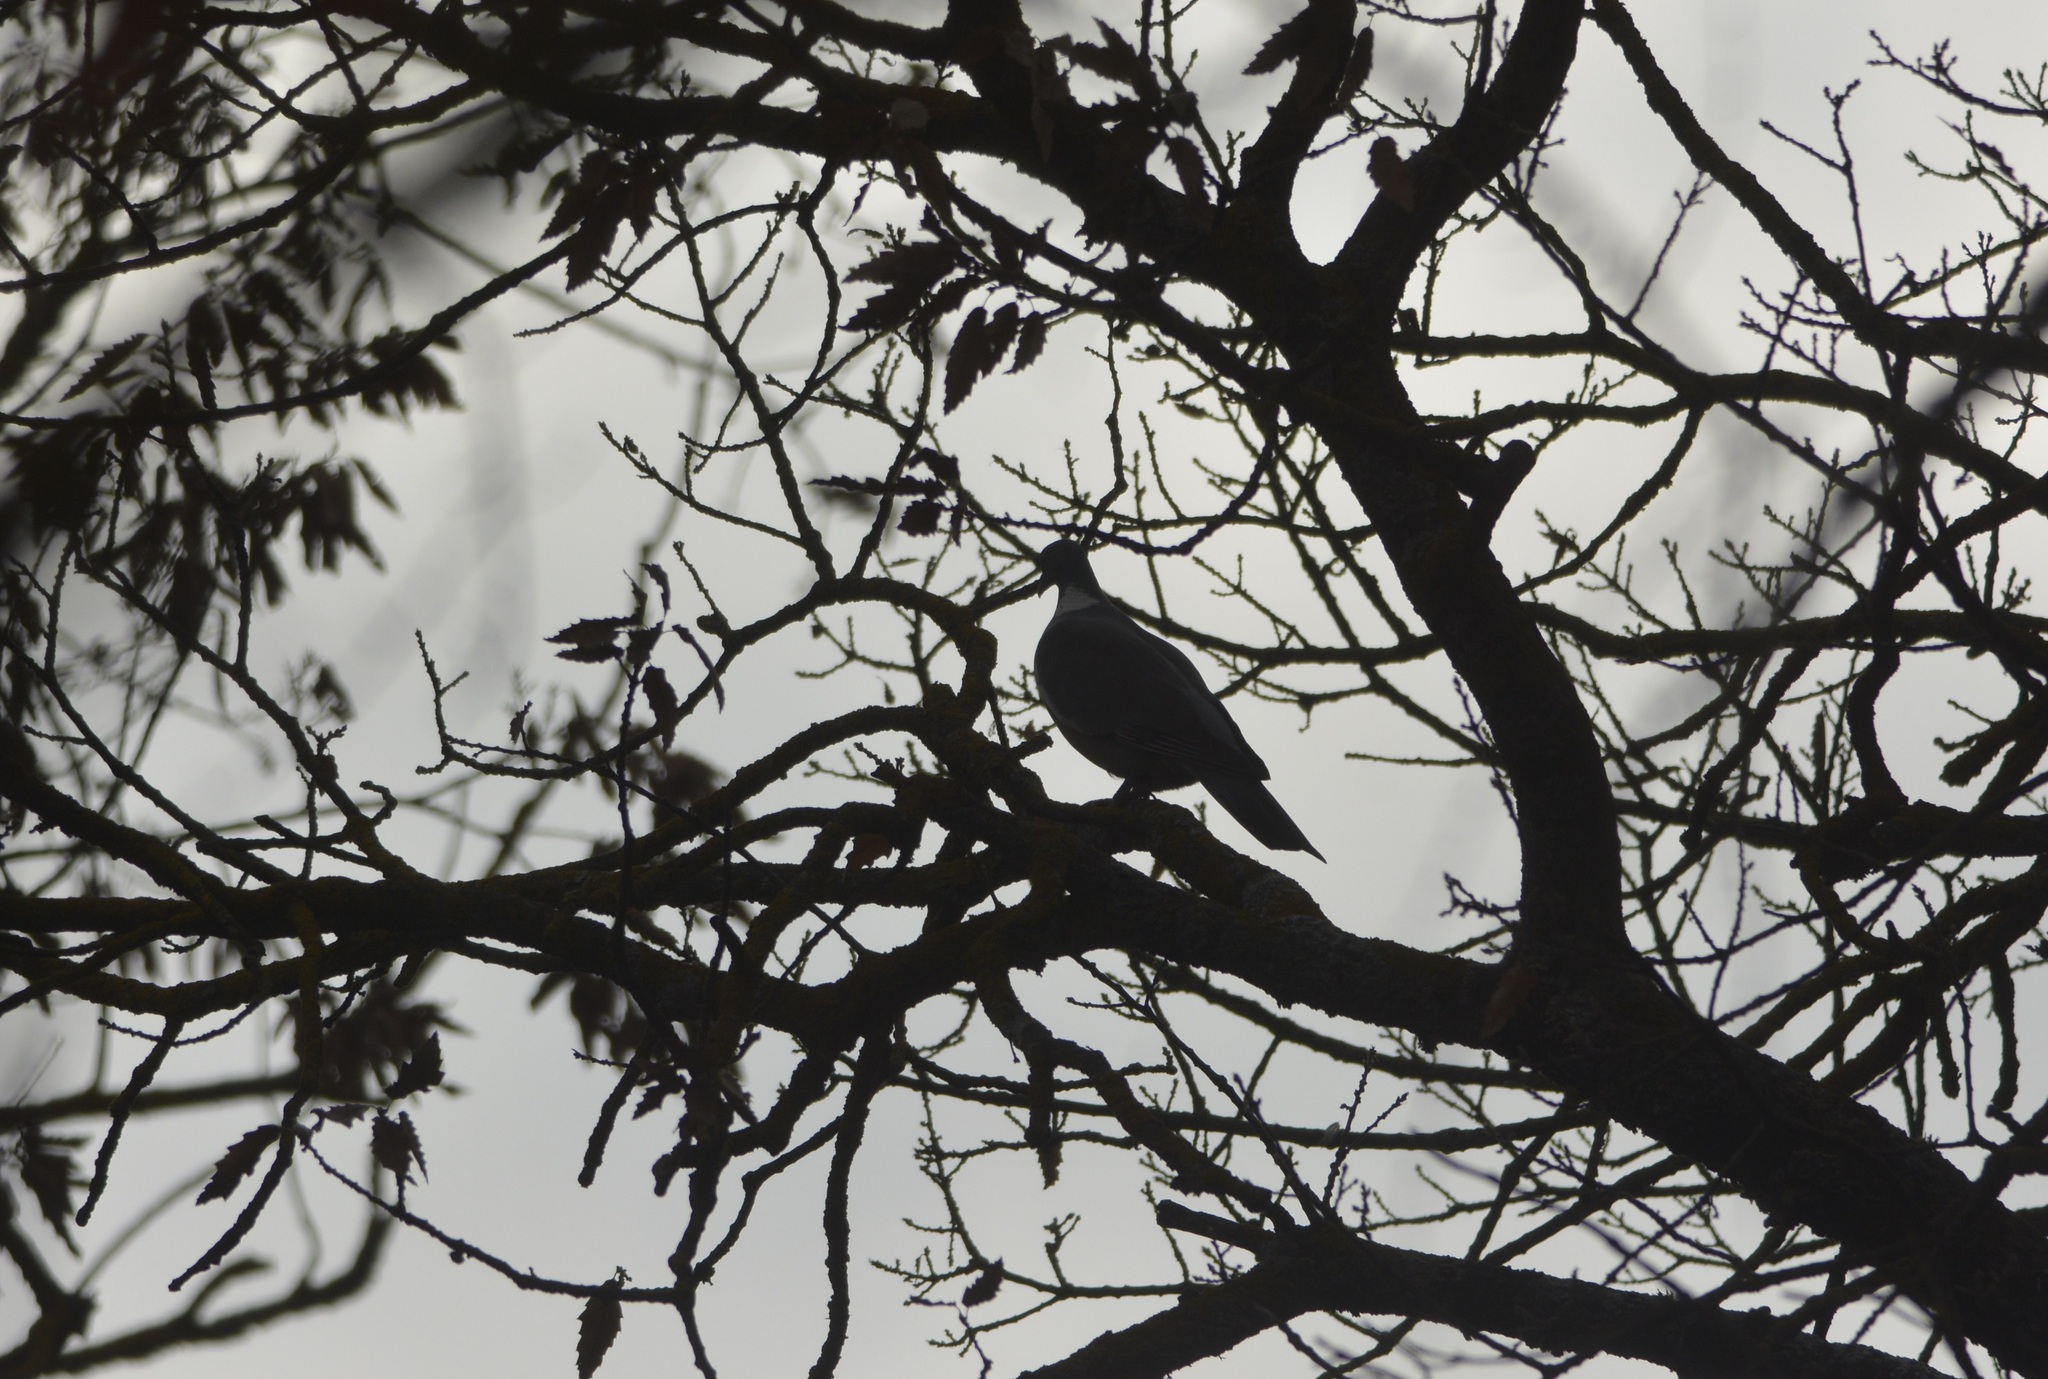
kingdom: Animalia
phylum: Chordata
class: Aves
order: Columbiformes
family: Columbidae
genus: Columba
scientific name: Columba palumbus
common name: Common wood pigeon
